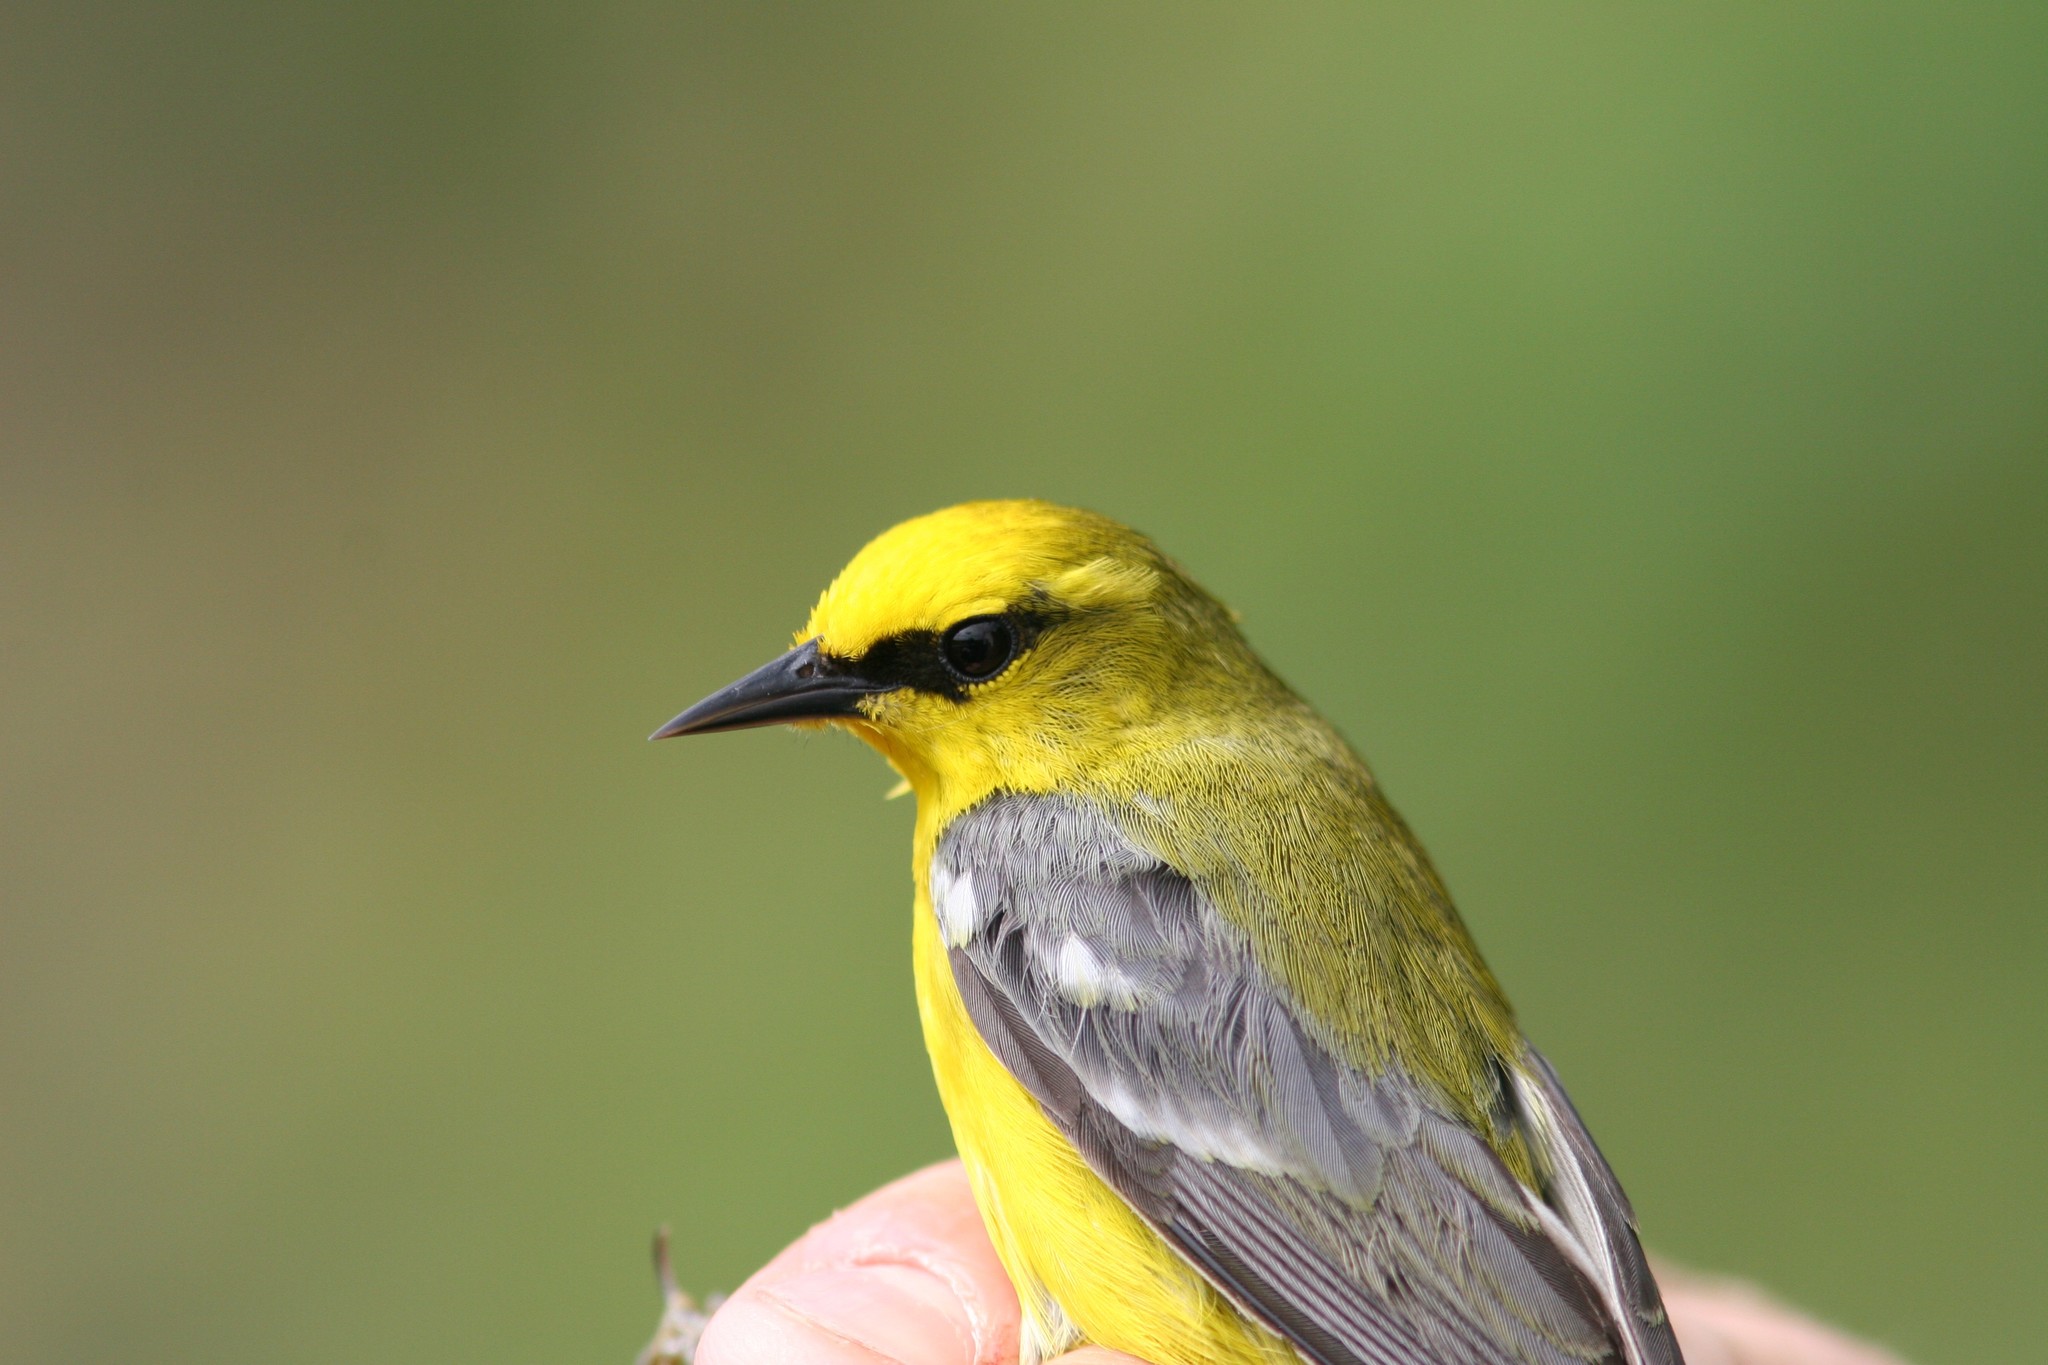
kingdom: Animalia
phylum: Chordata
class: Aves
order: Passeriformes
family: Parulidae
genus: Vermivora
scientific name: Vermivora cyanoptera
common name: Blue-winged warbler
